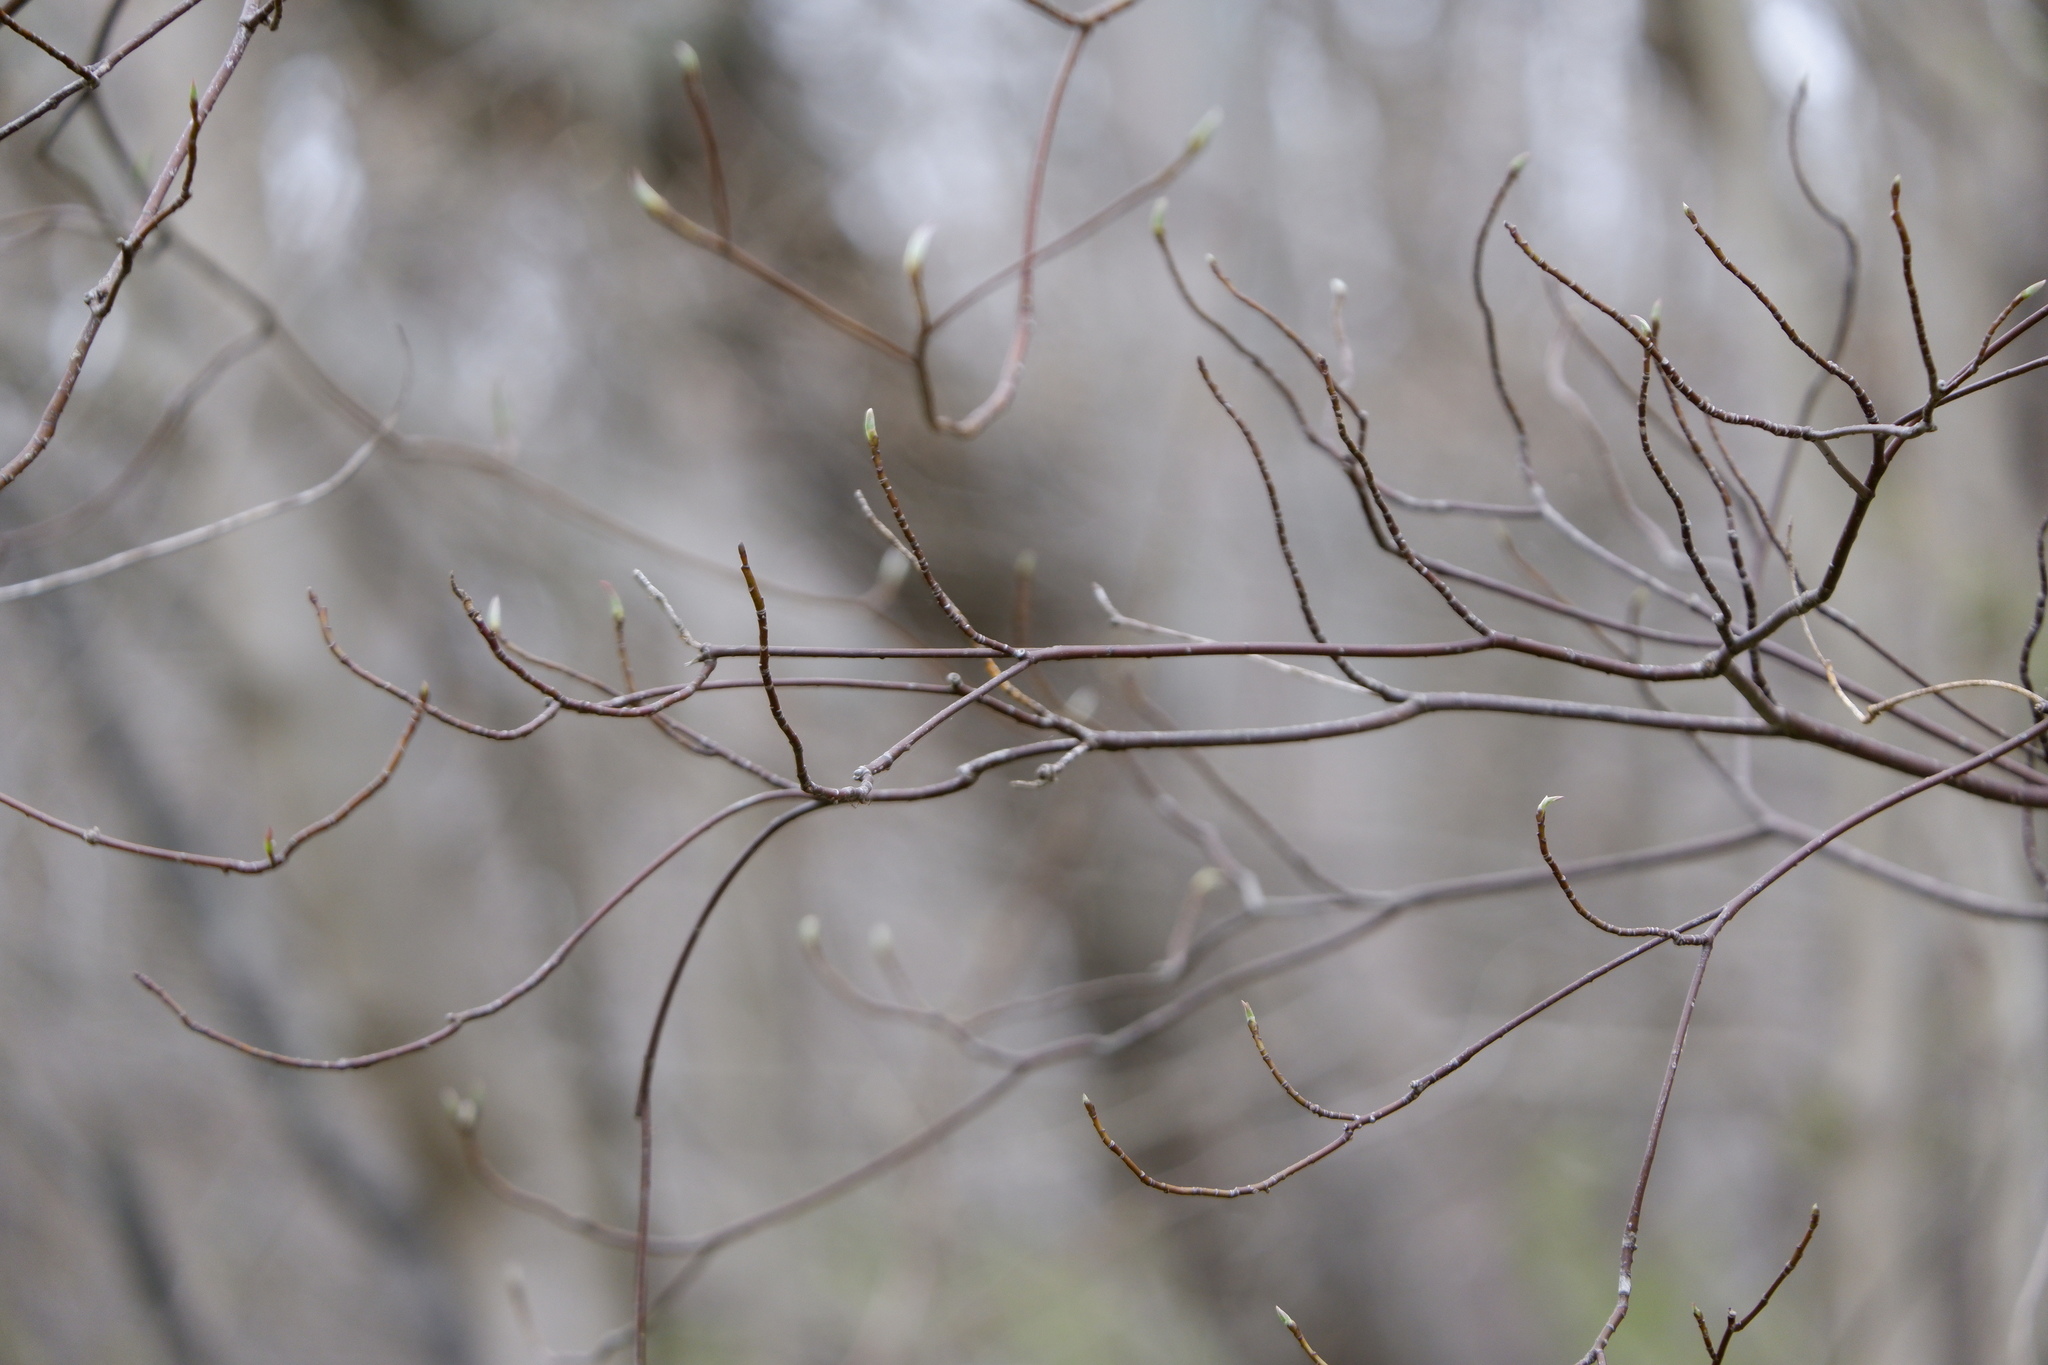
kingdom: Plantae
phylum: Tracheophyta
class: Magnoliopsida
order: Cornales
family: Cornaceae
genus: Cornus
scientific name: Cornus alternifolia
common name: Pagoda dogwood
